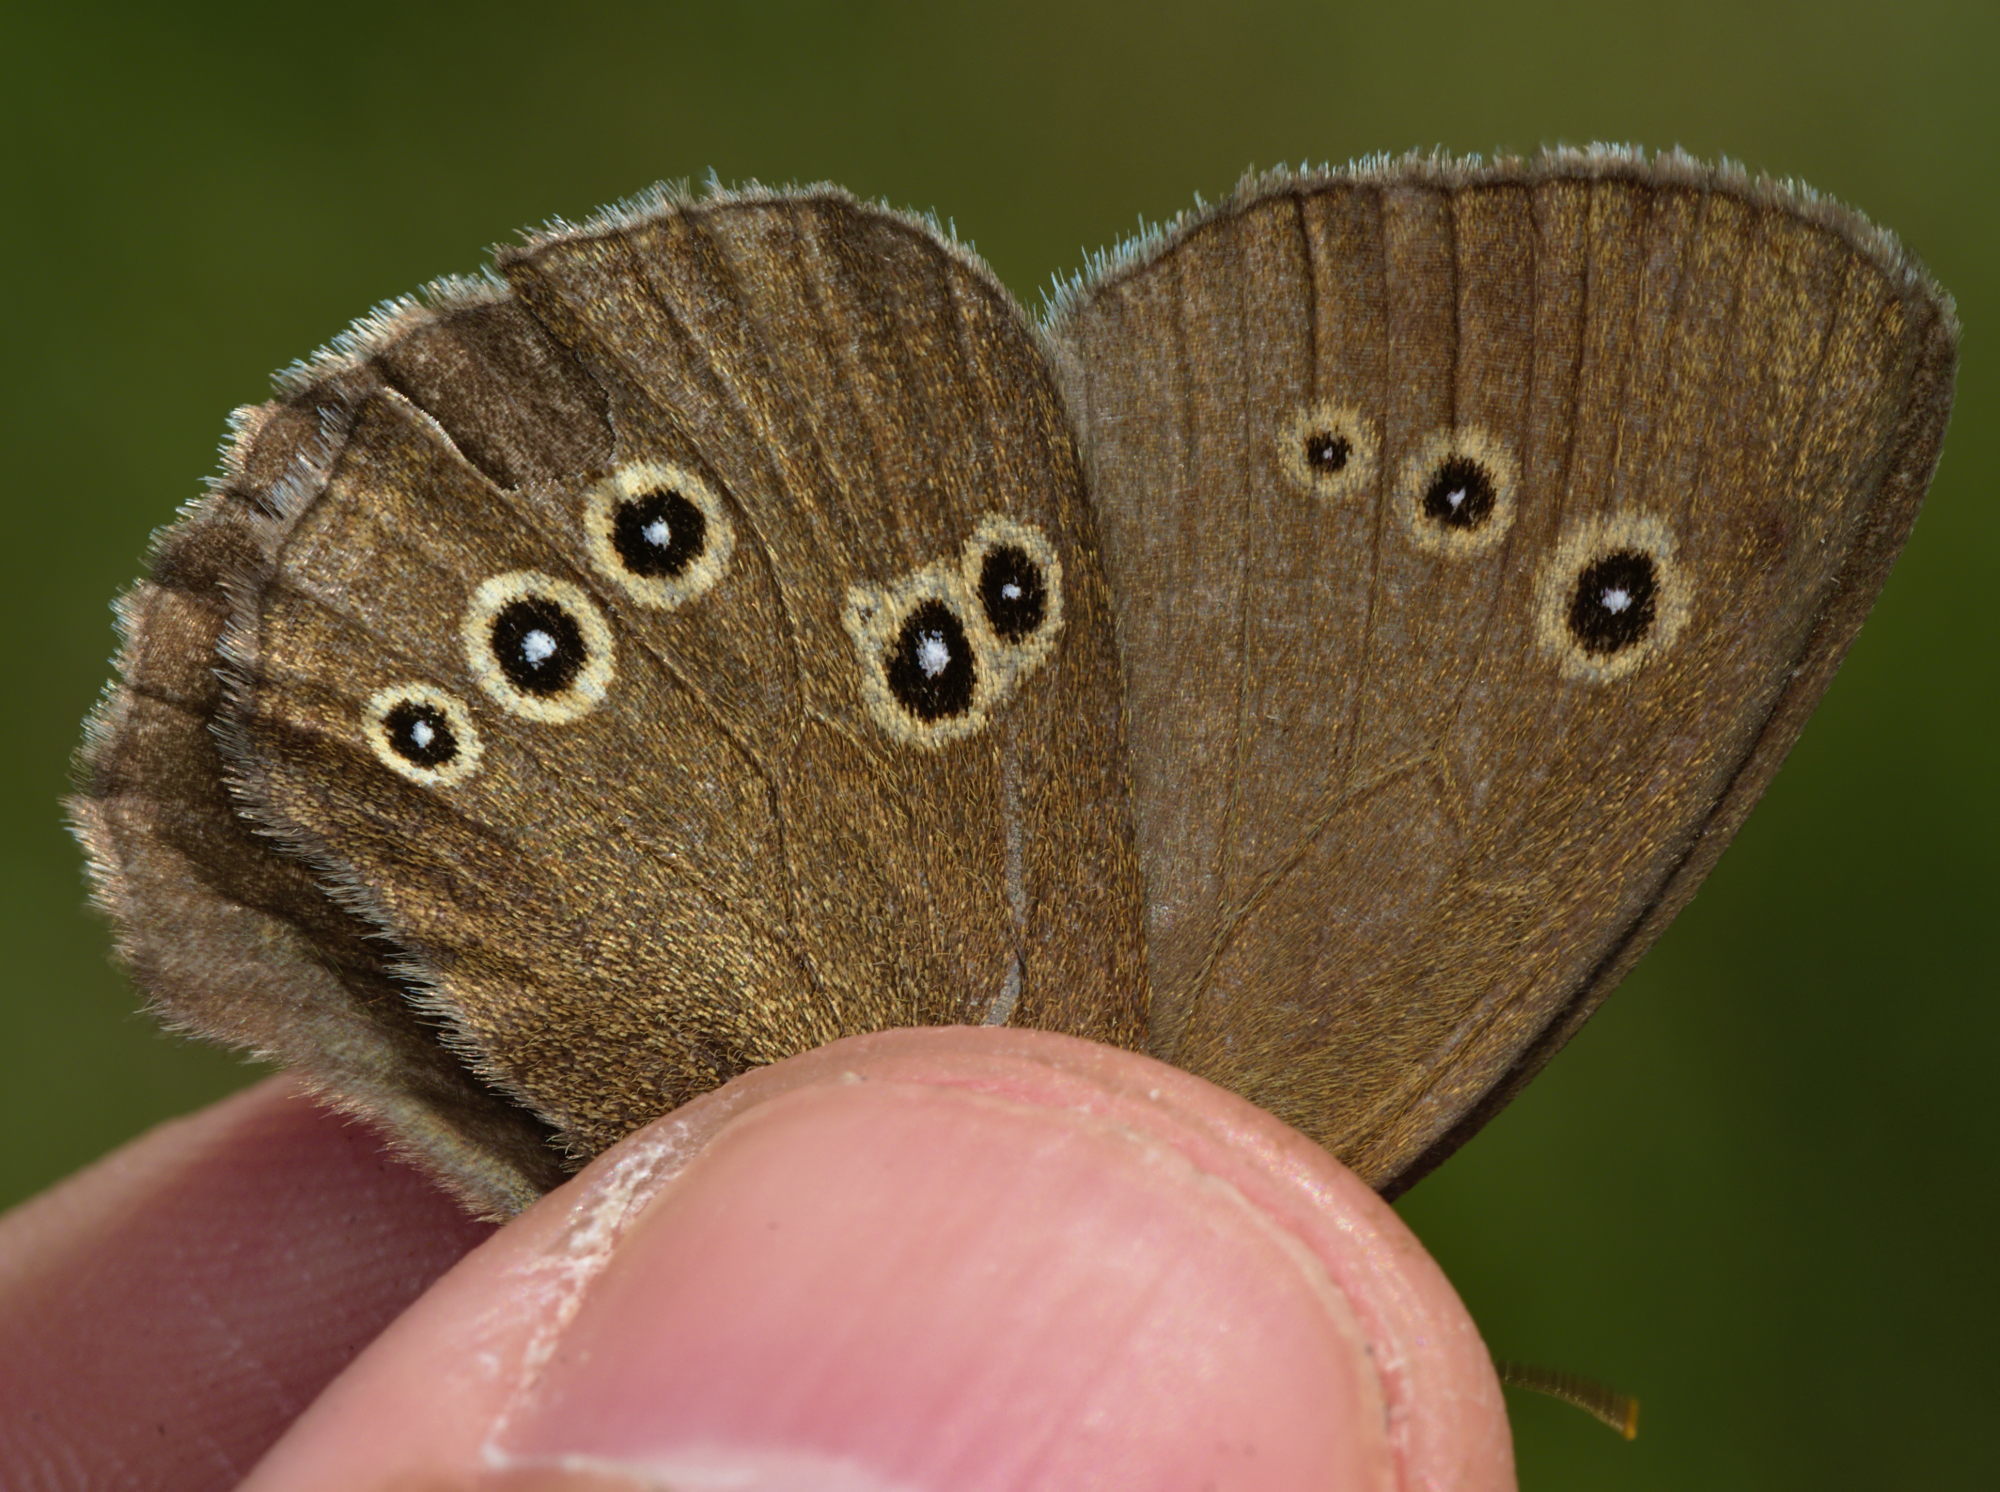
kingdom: Animalia
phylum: Arthropoda
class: Insecta
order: Lepidoptera
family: Nymphalidae
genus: Aphantopus
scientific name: Aphantopus hyperantus
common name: Ringlet
